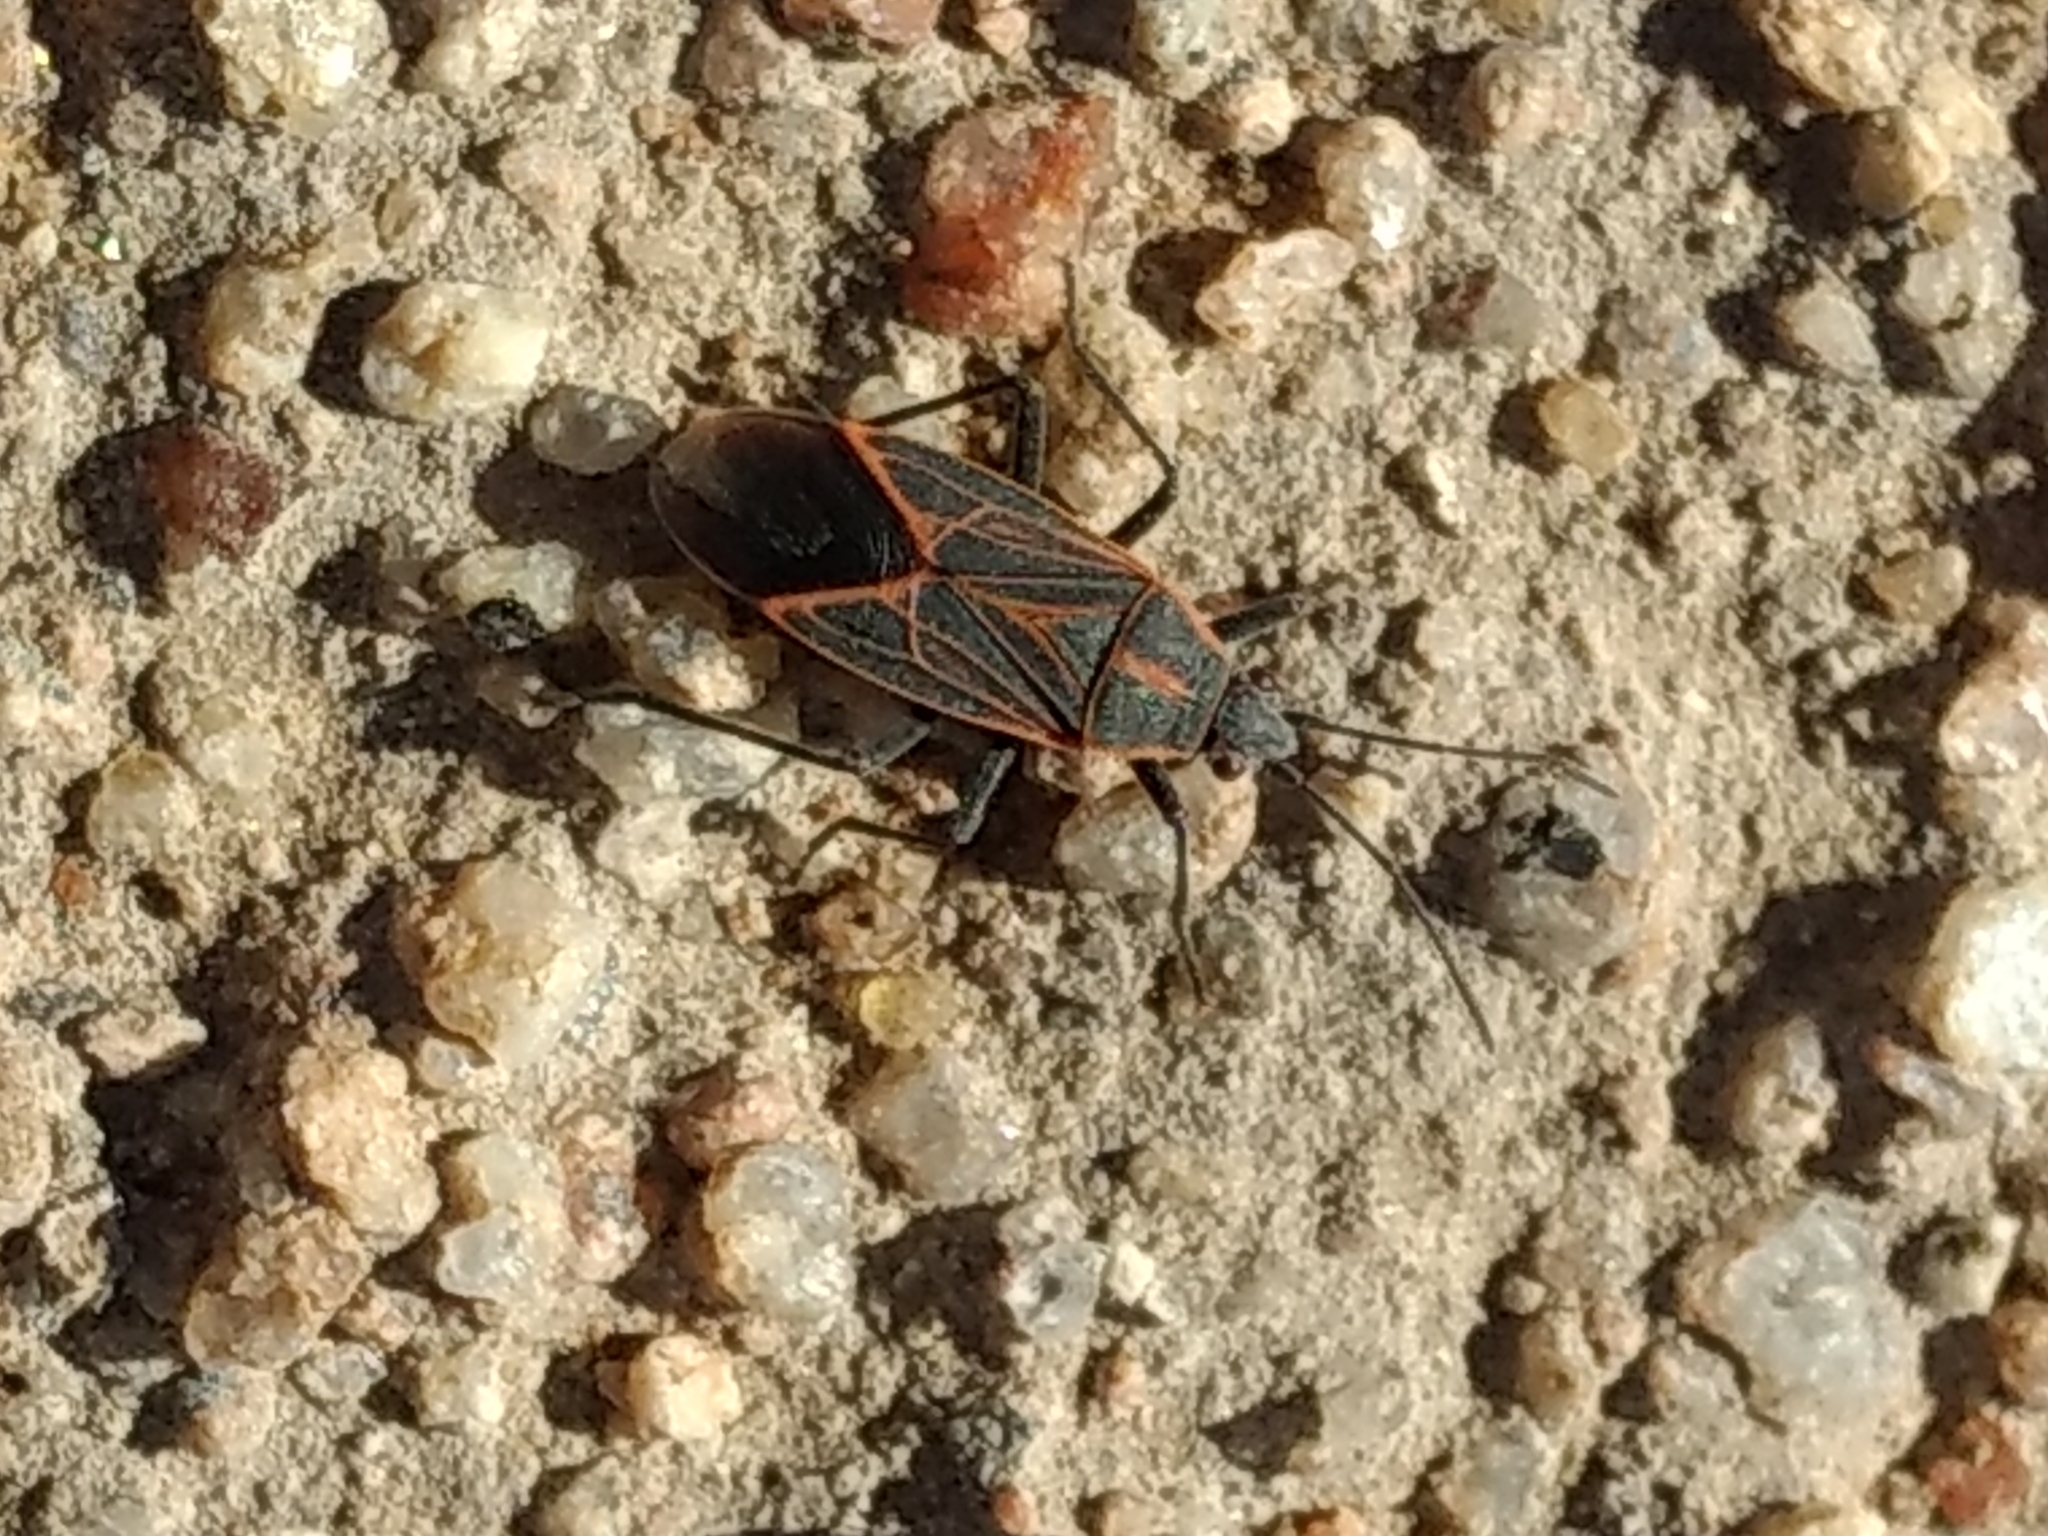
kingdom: Animalia
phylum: Arthropoda
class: Insecta
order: Hemiptera
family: Rhopalidae
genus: Boisea
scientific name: Boisea rubrolineata
